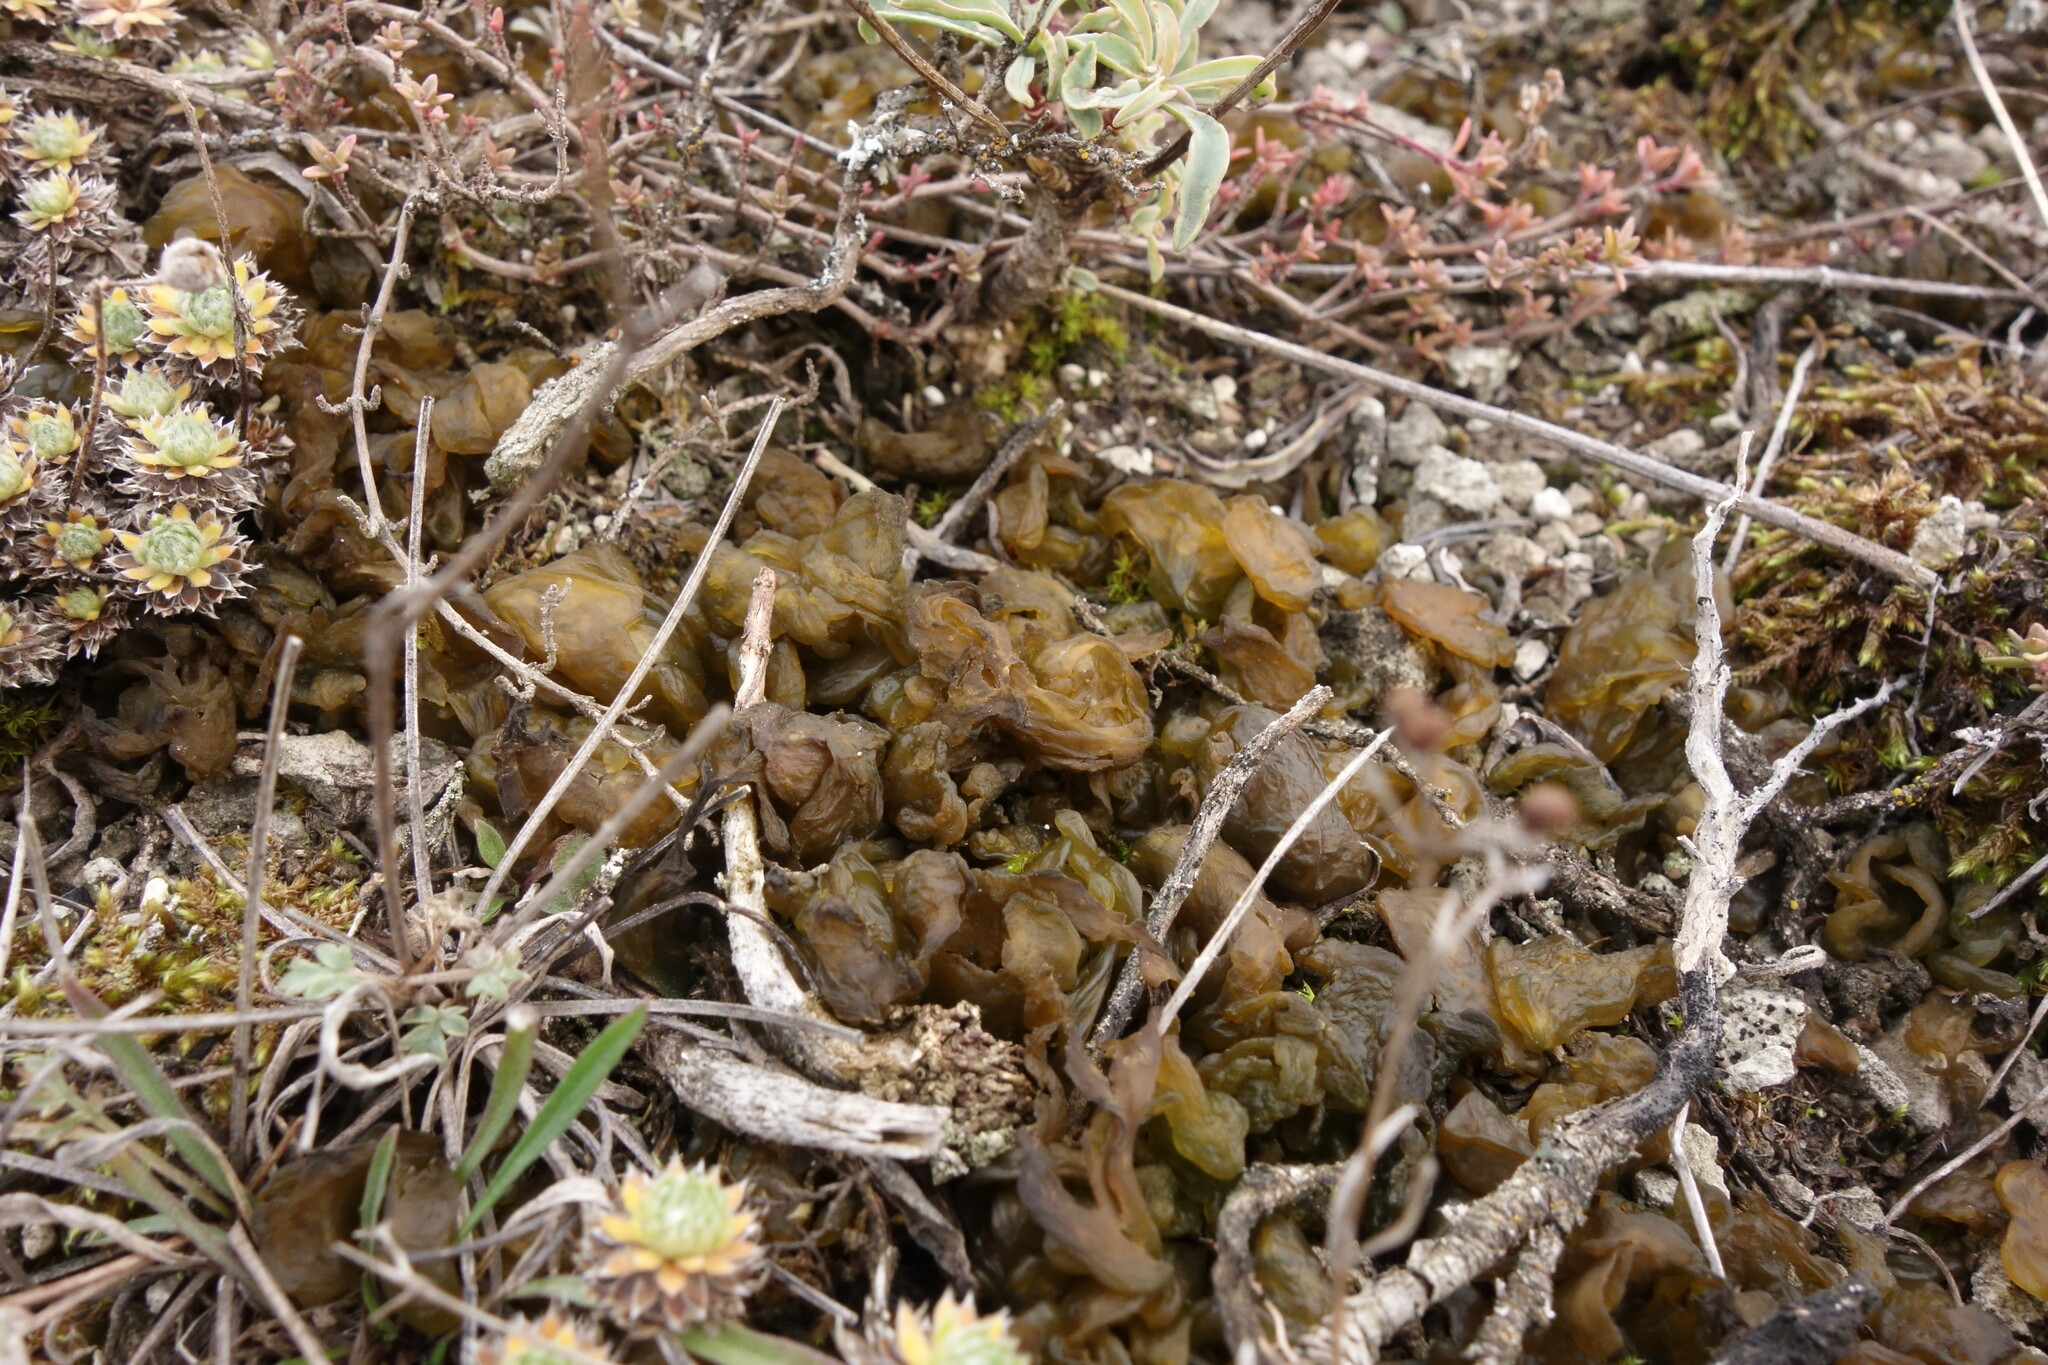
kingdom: Bacteria
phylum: Cyanobacteria
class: Cyanobacteriia
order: Cyanobacteriales
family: Nostocaceae
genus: Nostoc
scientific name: Nostoc commune
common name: Star jelly
